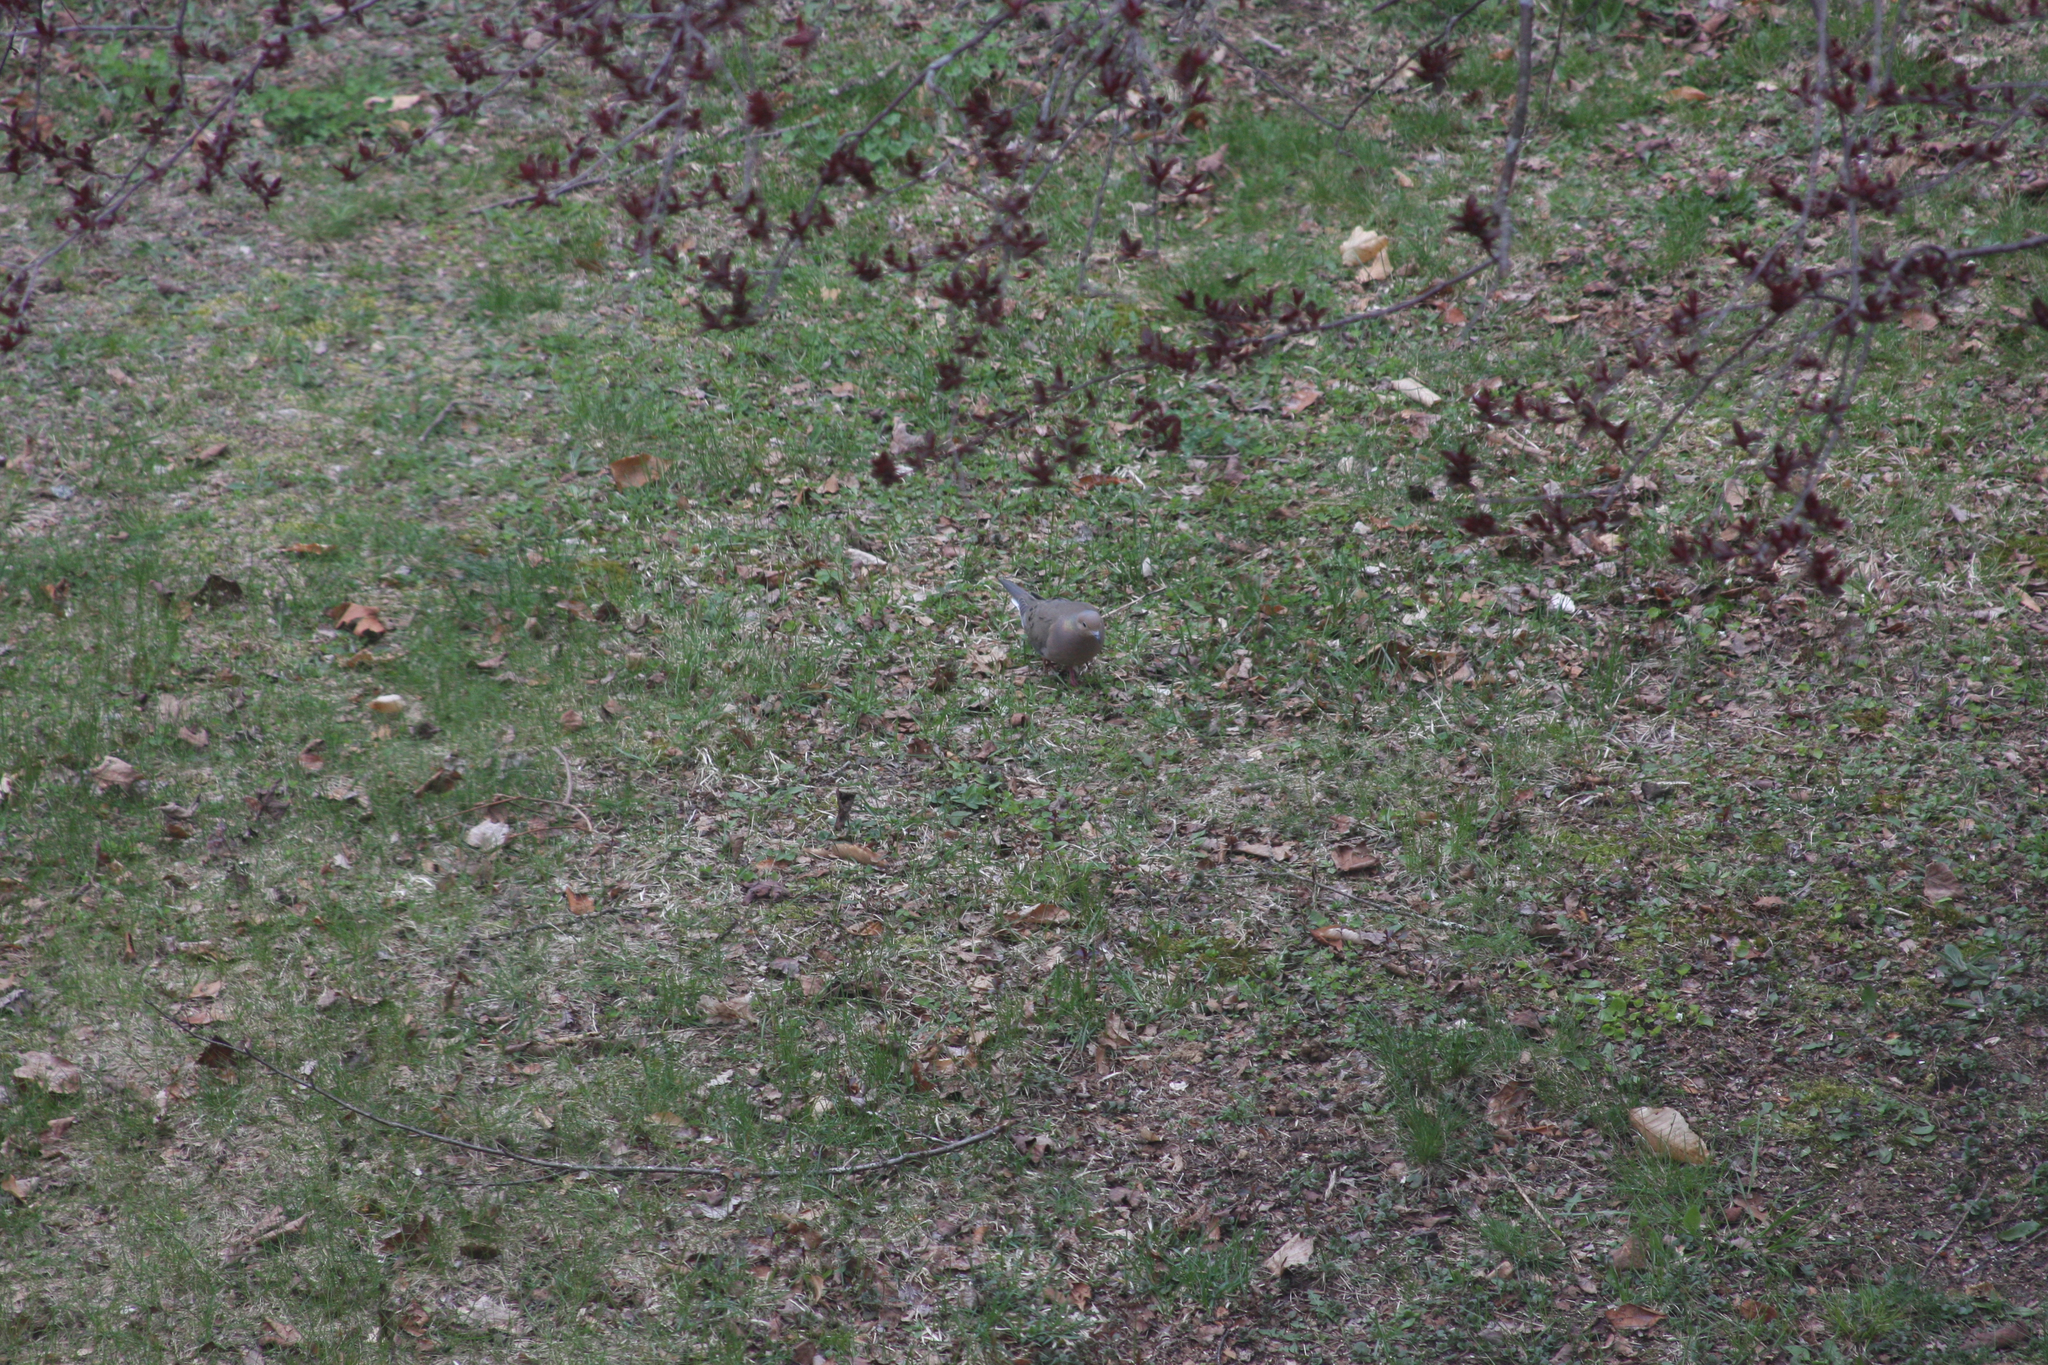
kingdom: Animalia
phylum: Chordata
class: Aves
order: Columbiformes
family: Columbidae
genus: Zenaida
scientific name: Zenaida macroura
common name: Mourning dove
